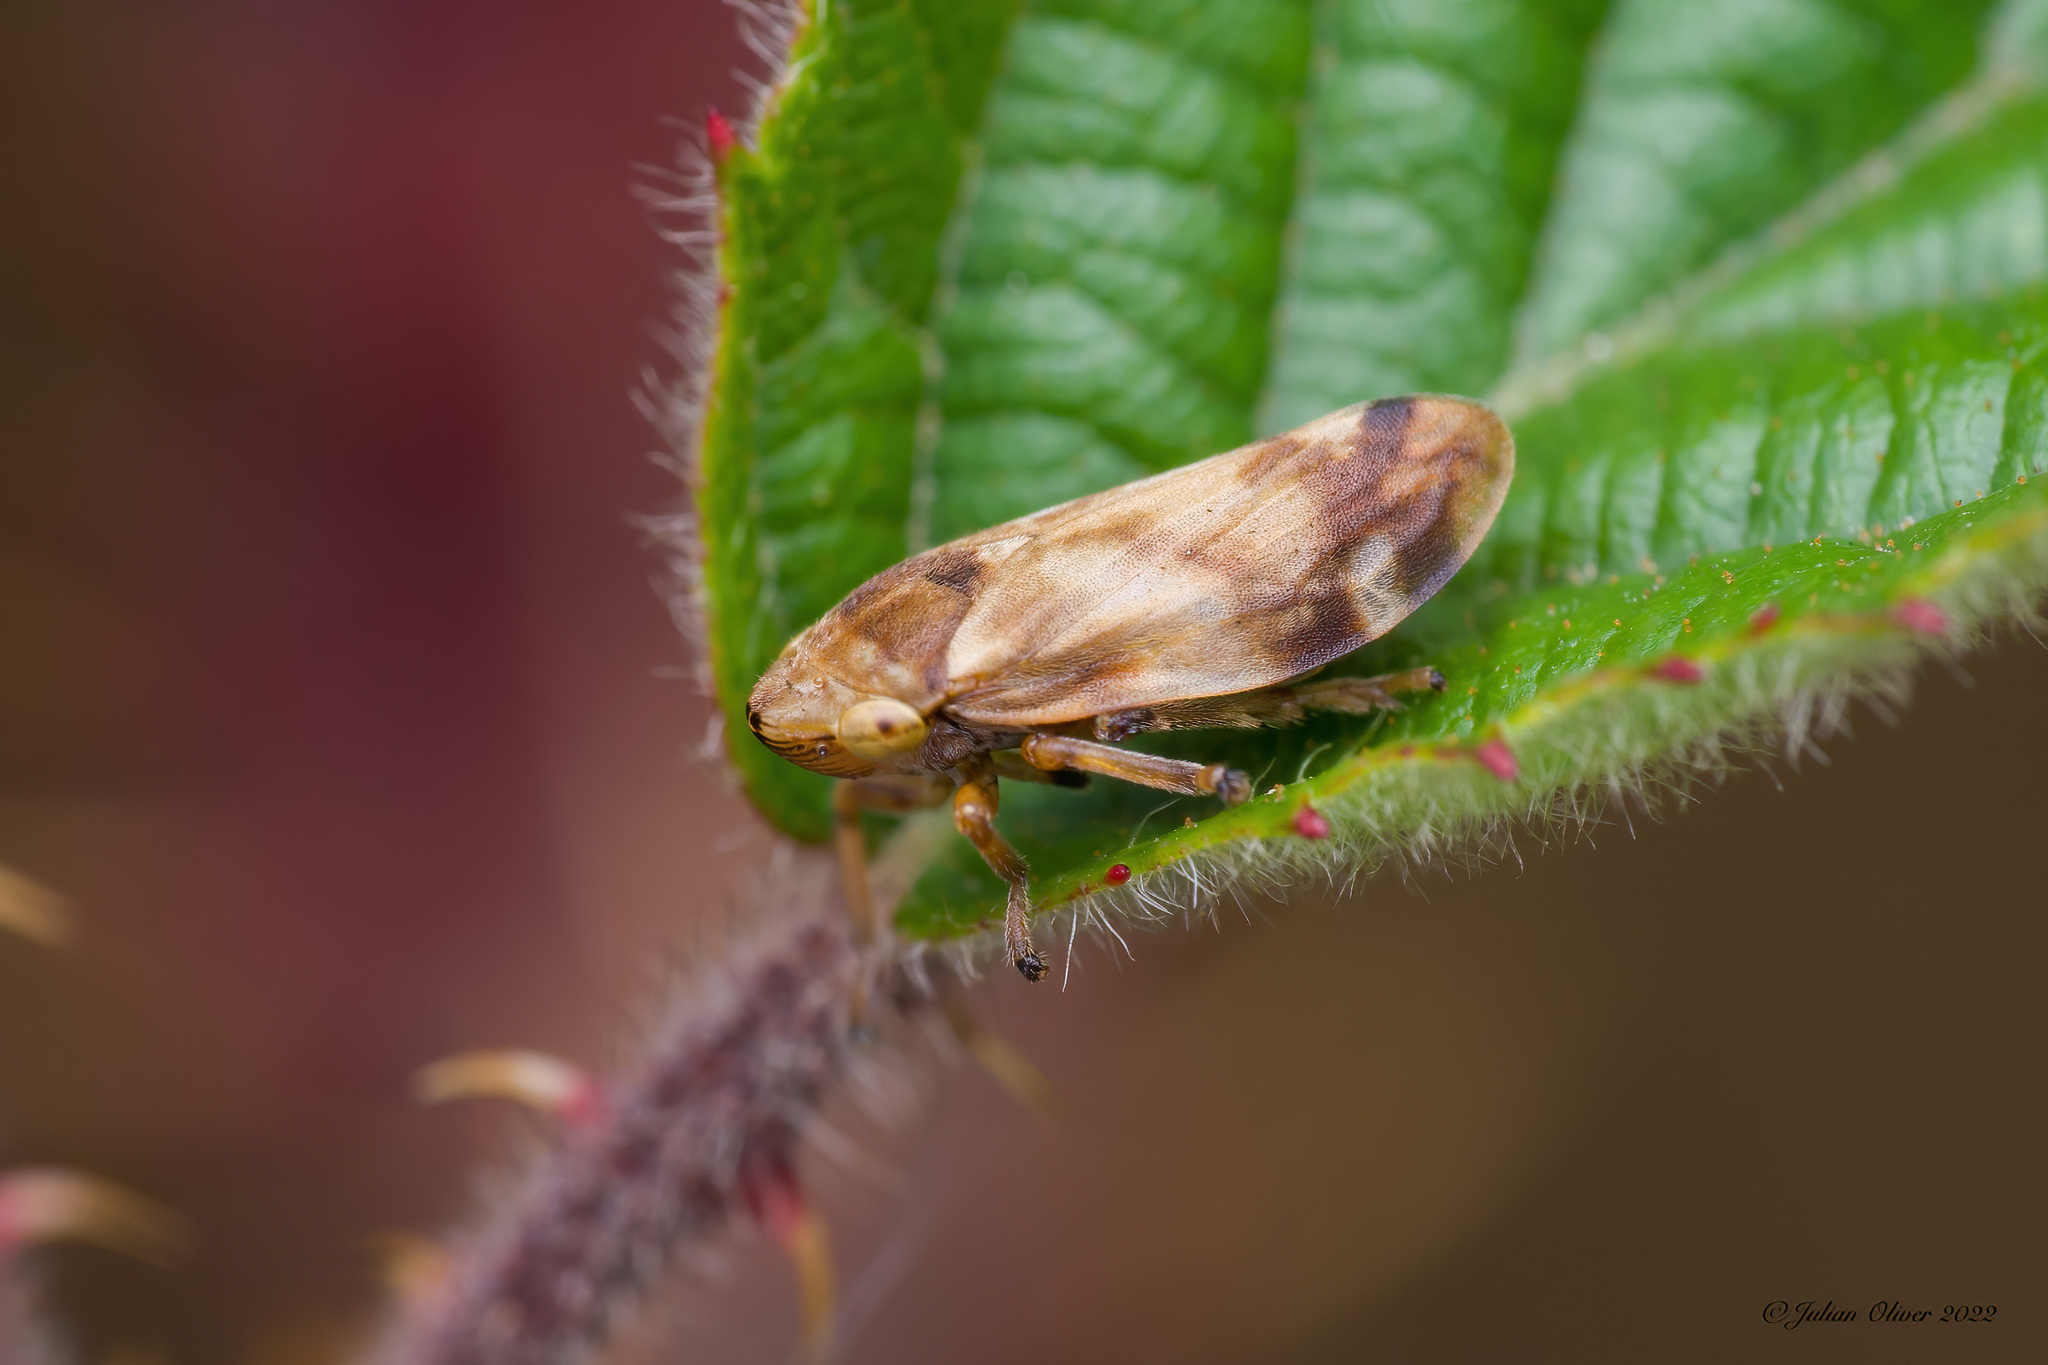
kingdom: Animalia
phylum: Arthropoda
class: Insecta
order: Hemiptera
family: Aphrophoridae
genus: Philaenus
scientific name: Philaenus spumarius
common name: Meadow spittlebug
